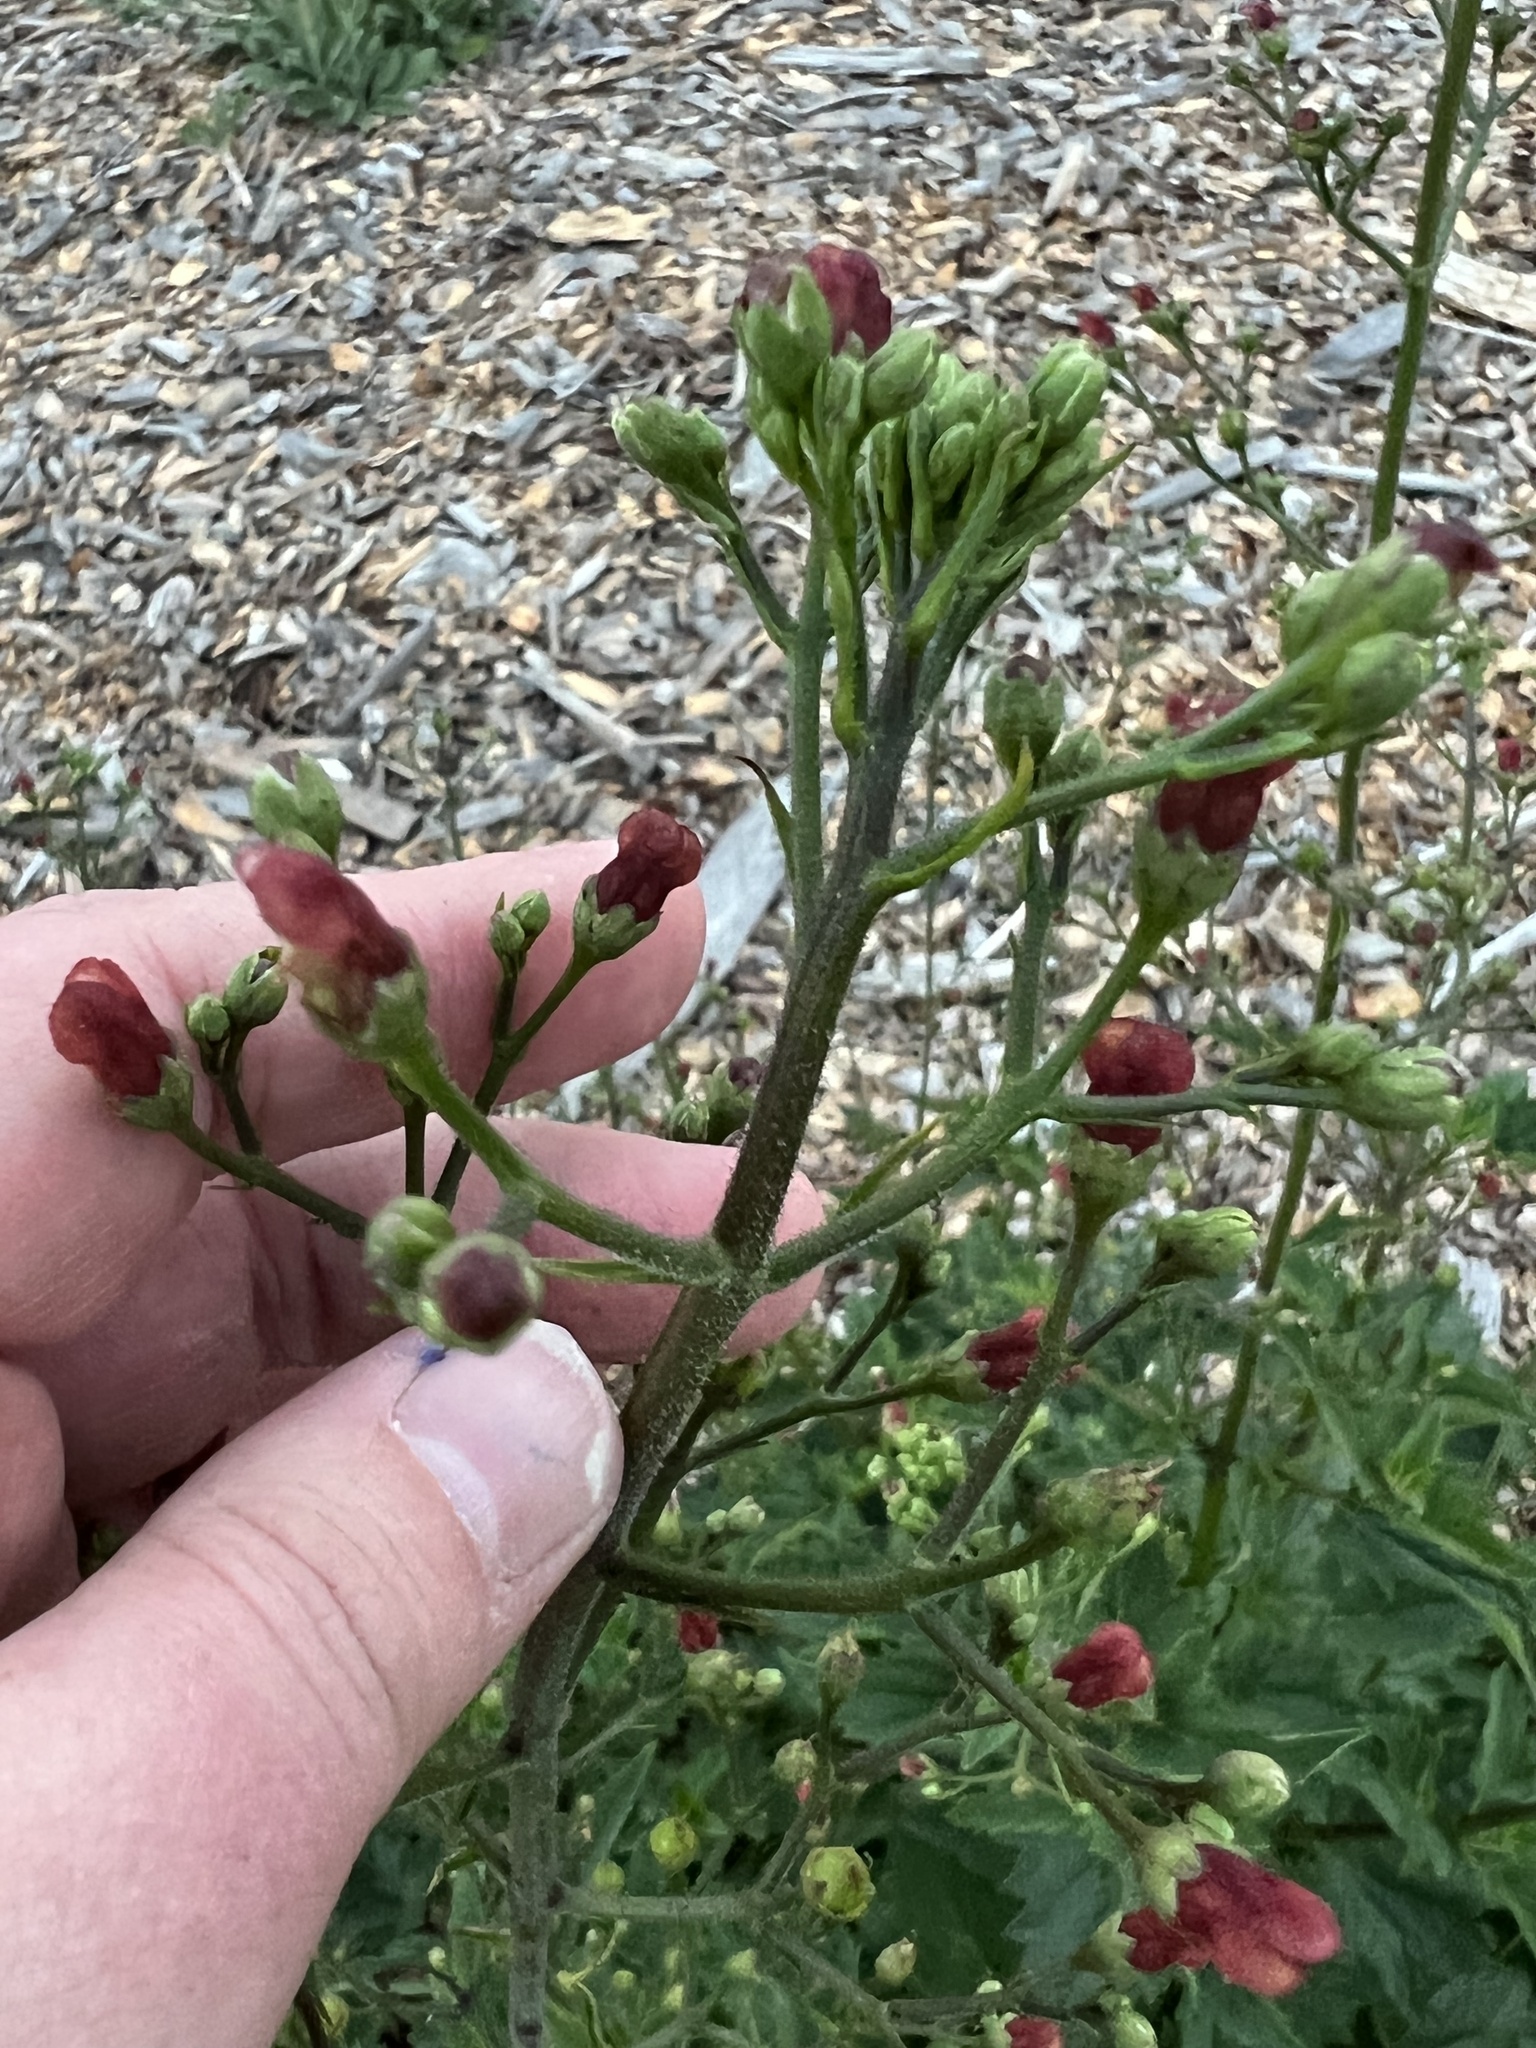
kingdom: Plantae
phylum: Tracheophyta
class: Magnoliopsida
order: Lamiales
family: Scrophulariaceae
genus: Scrophularia
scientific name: Scrophularia californica
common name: California figwort
